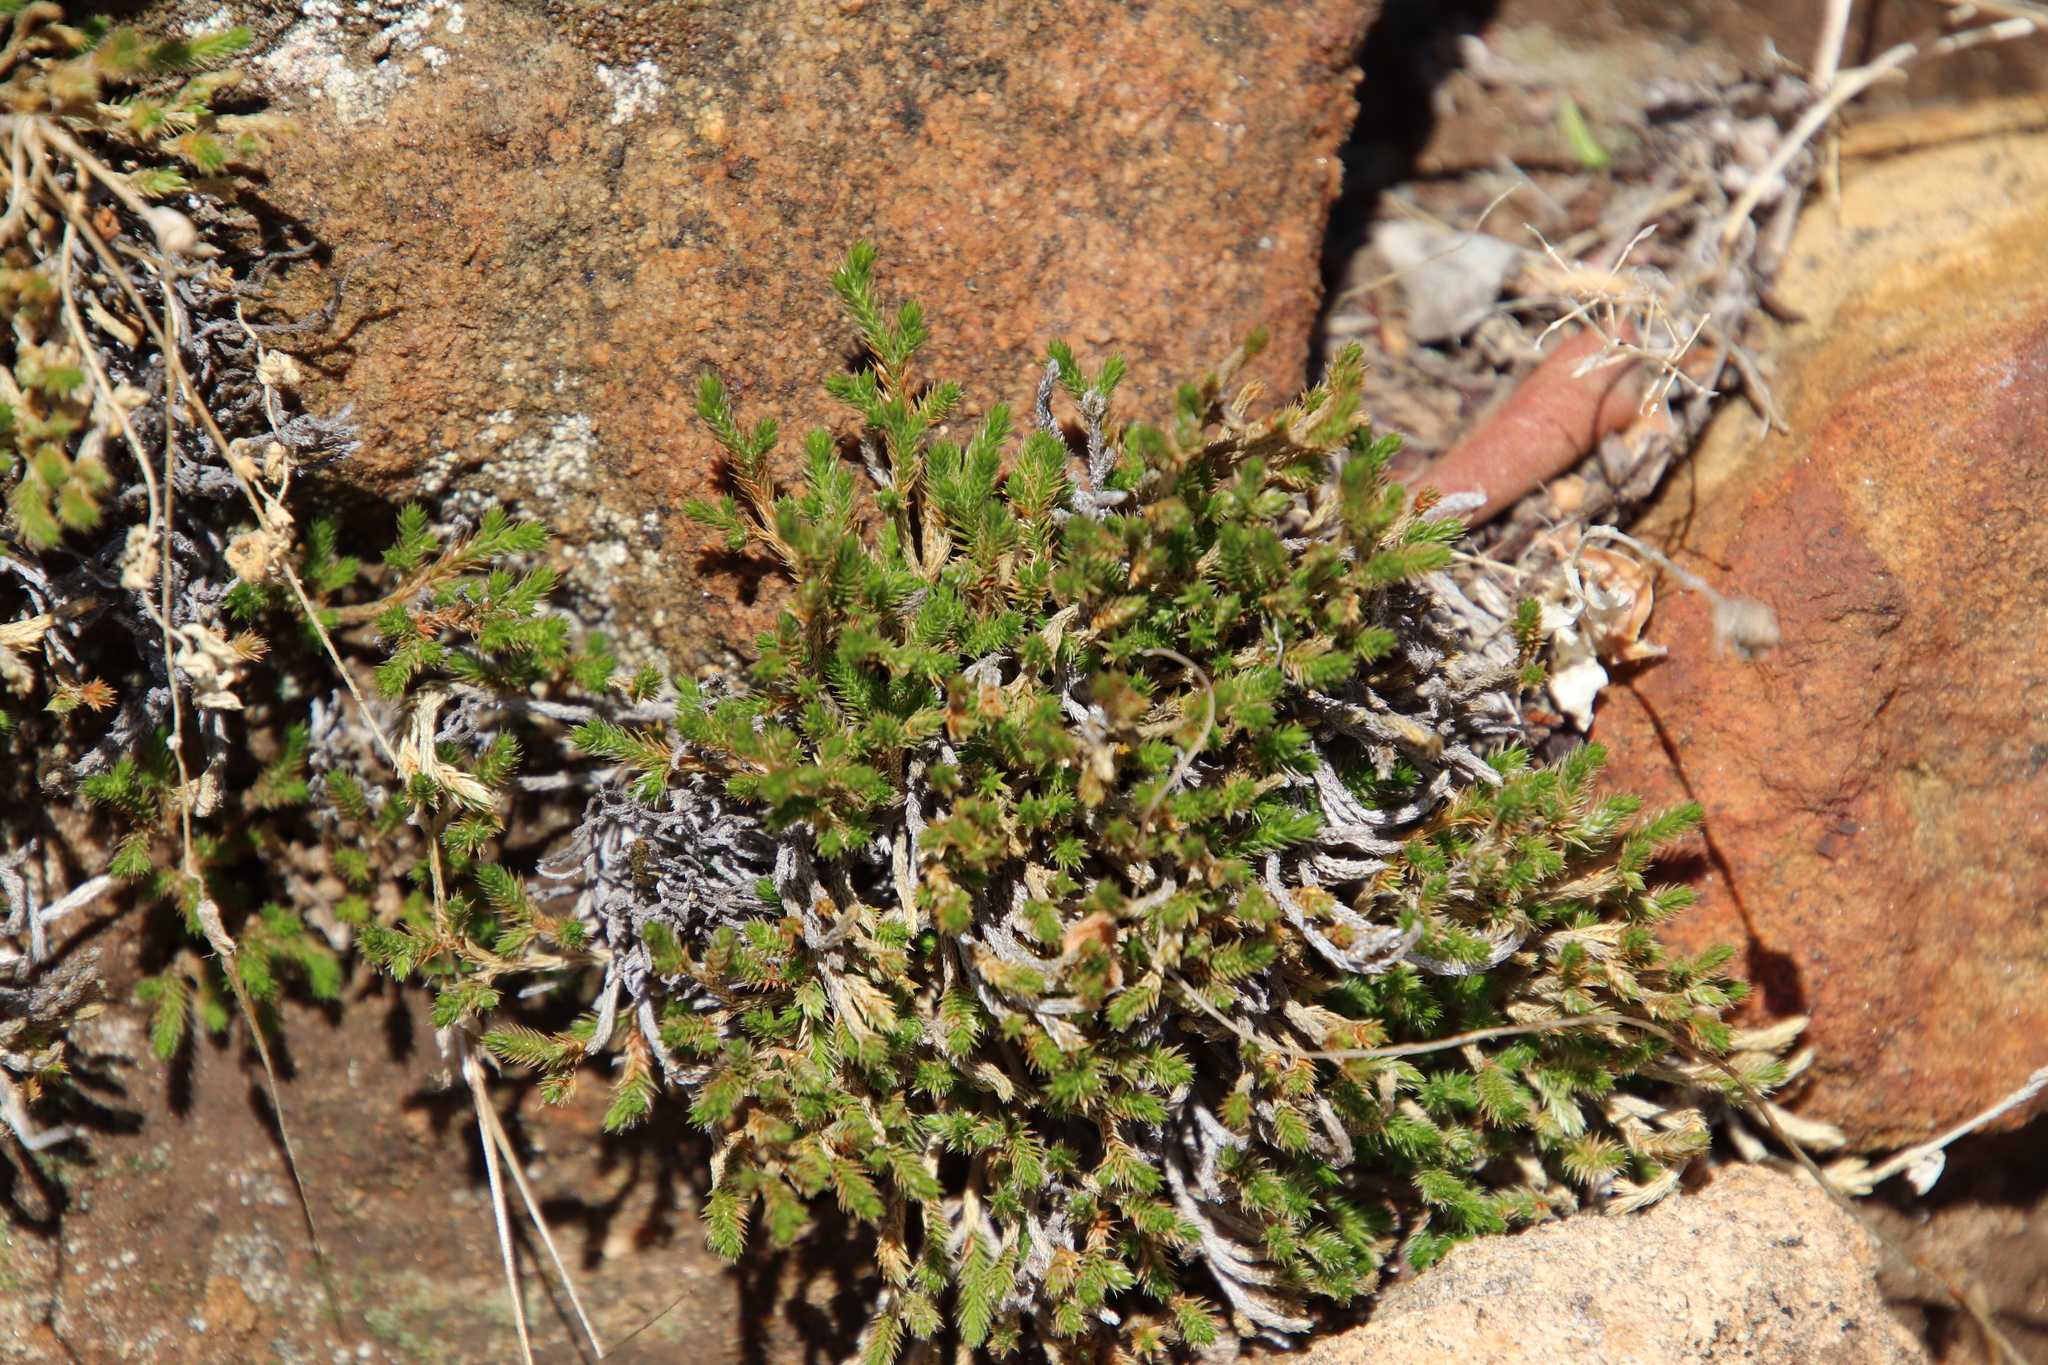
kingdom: Plantae
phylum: Tracheophyta
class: Lycopodiopsida
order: Selaginellales
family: Selaginellaceae
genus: Selaginella
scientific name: Selaginella bigelovii
